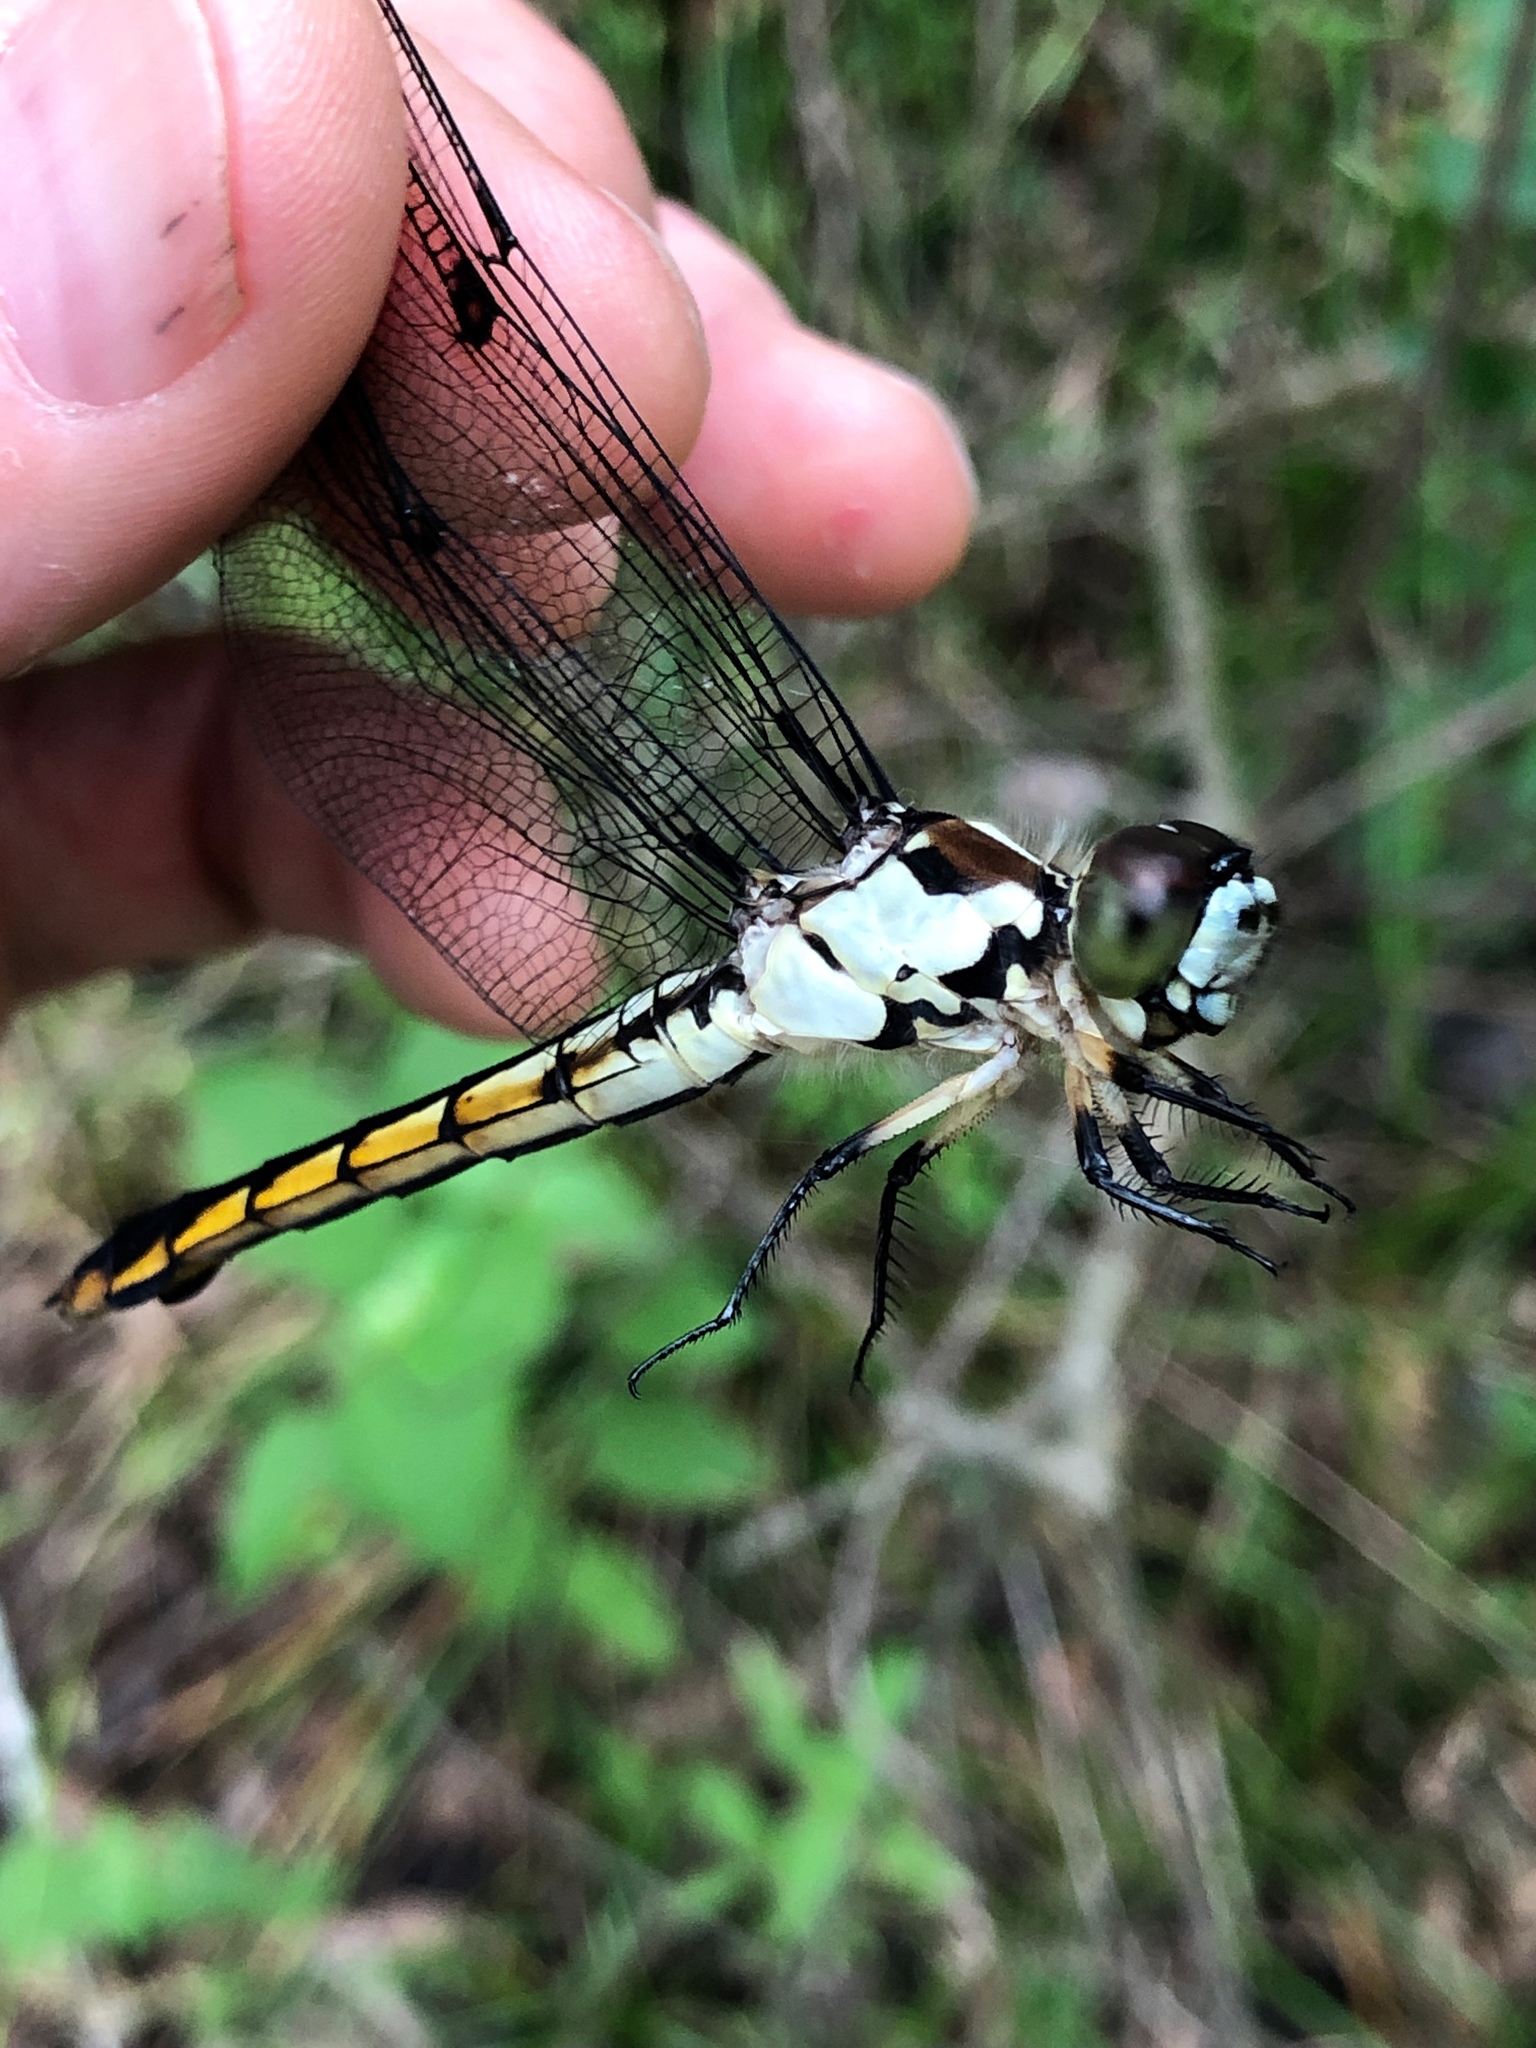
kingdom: Animalia
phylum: Arthropoda
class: Insecta
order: Odonata
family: Libellulidae
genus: Libellula
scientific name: Libellula vibrans
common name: Great blue skimmer
